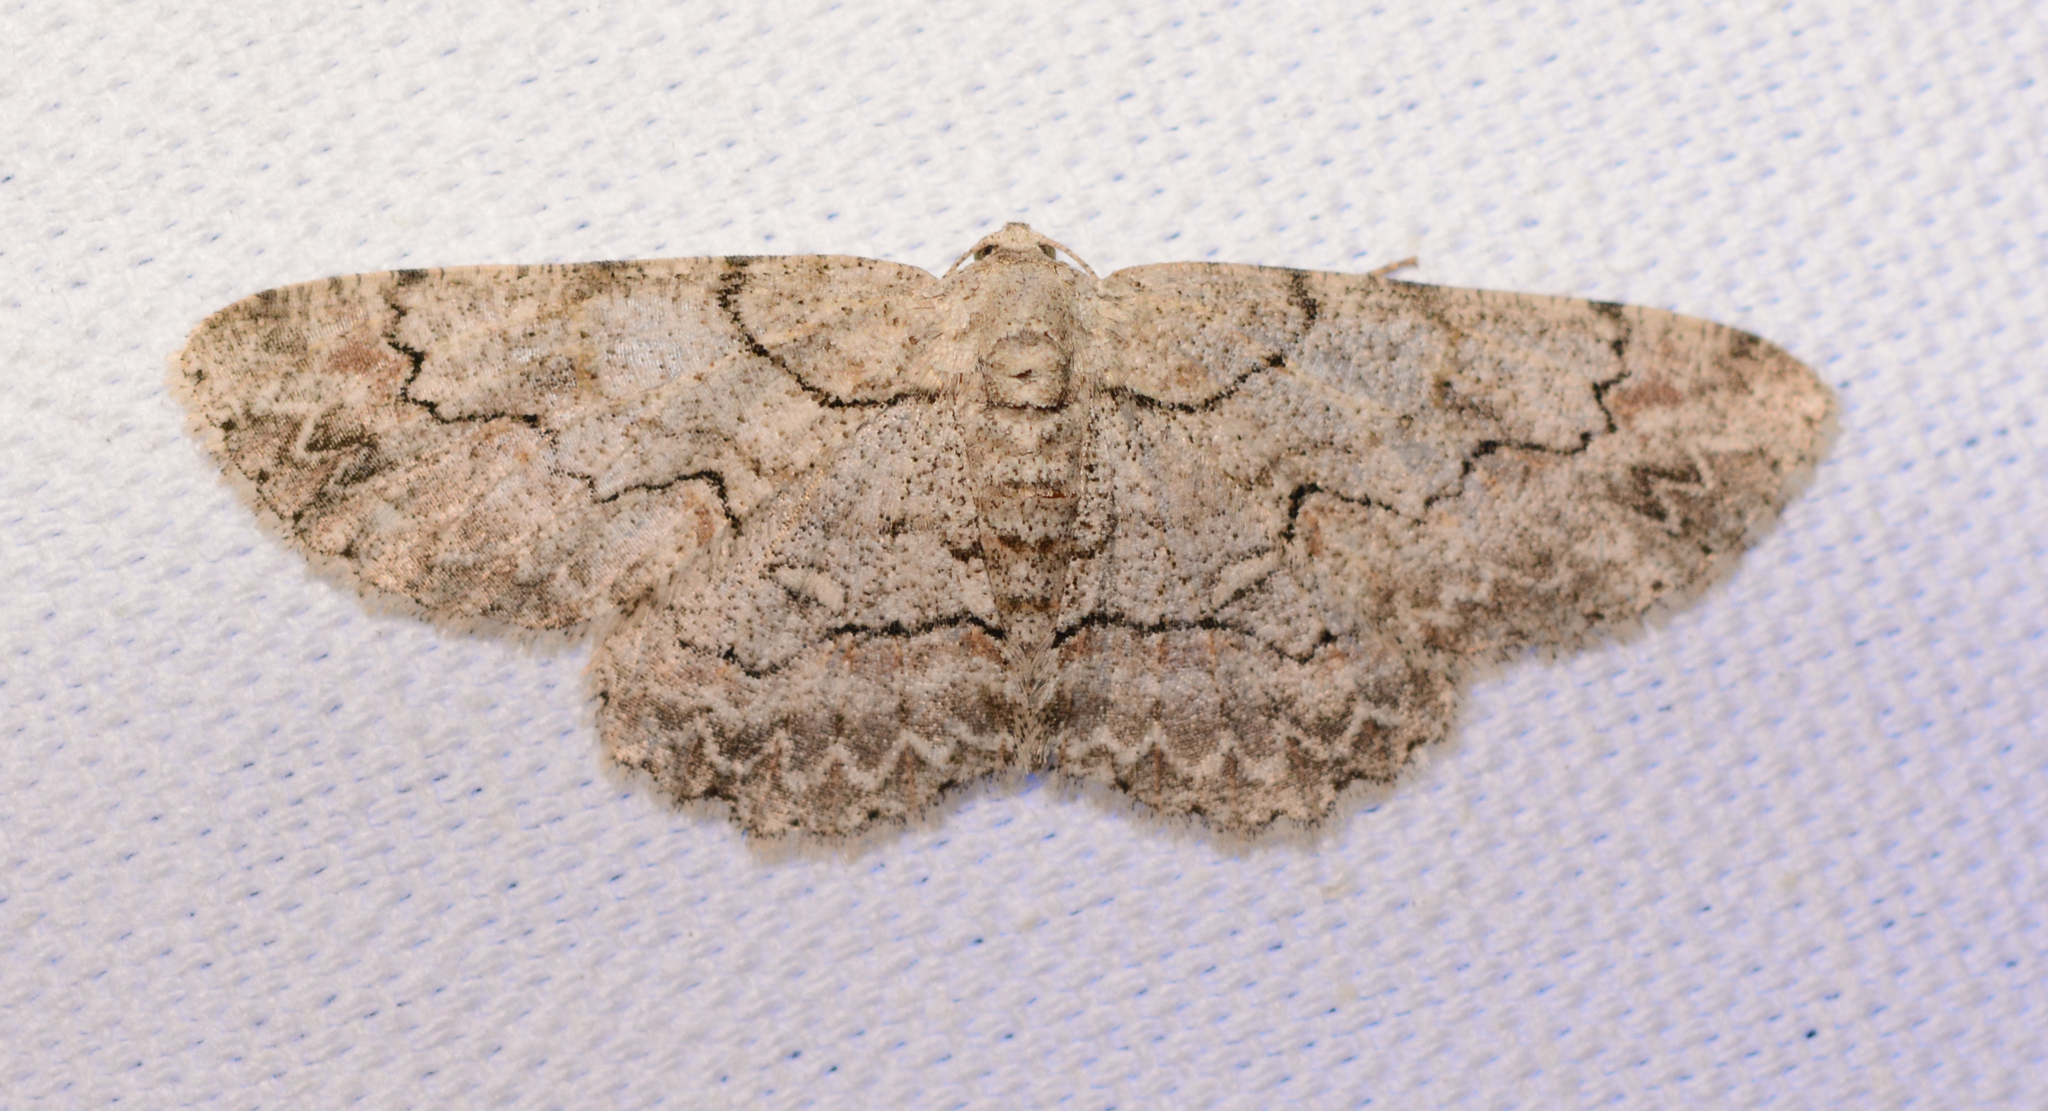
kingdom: Animalia
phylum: Arthropoda
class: Insecta
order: Lepidoptera
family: Geometridae
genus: Iridopsis
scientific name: Iridopsis defectaria
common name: Brown-shaded gray
